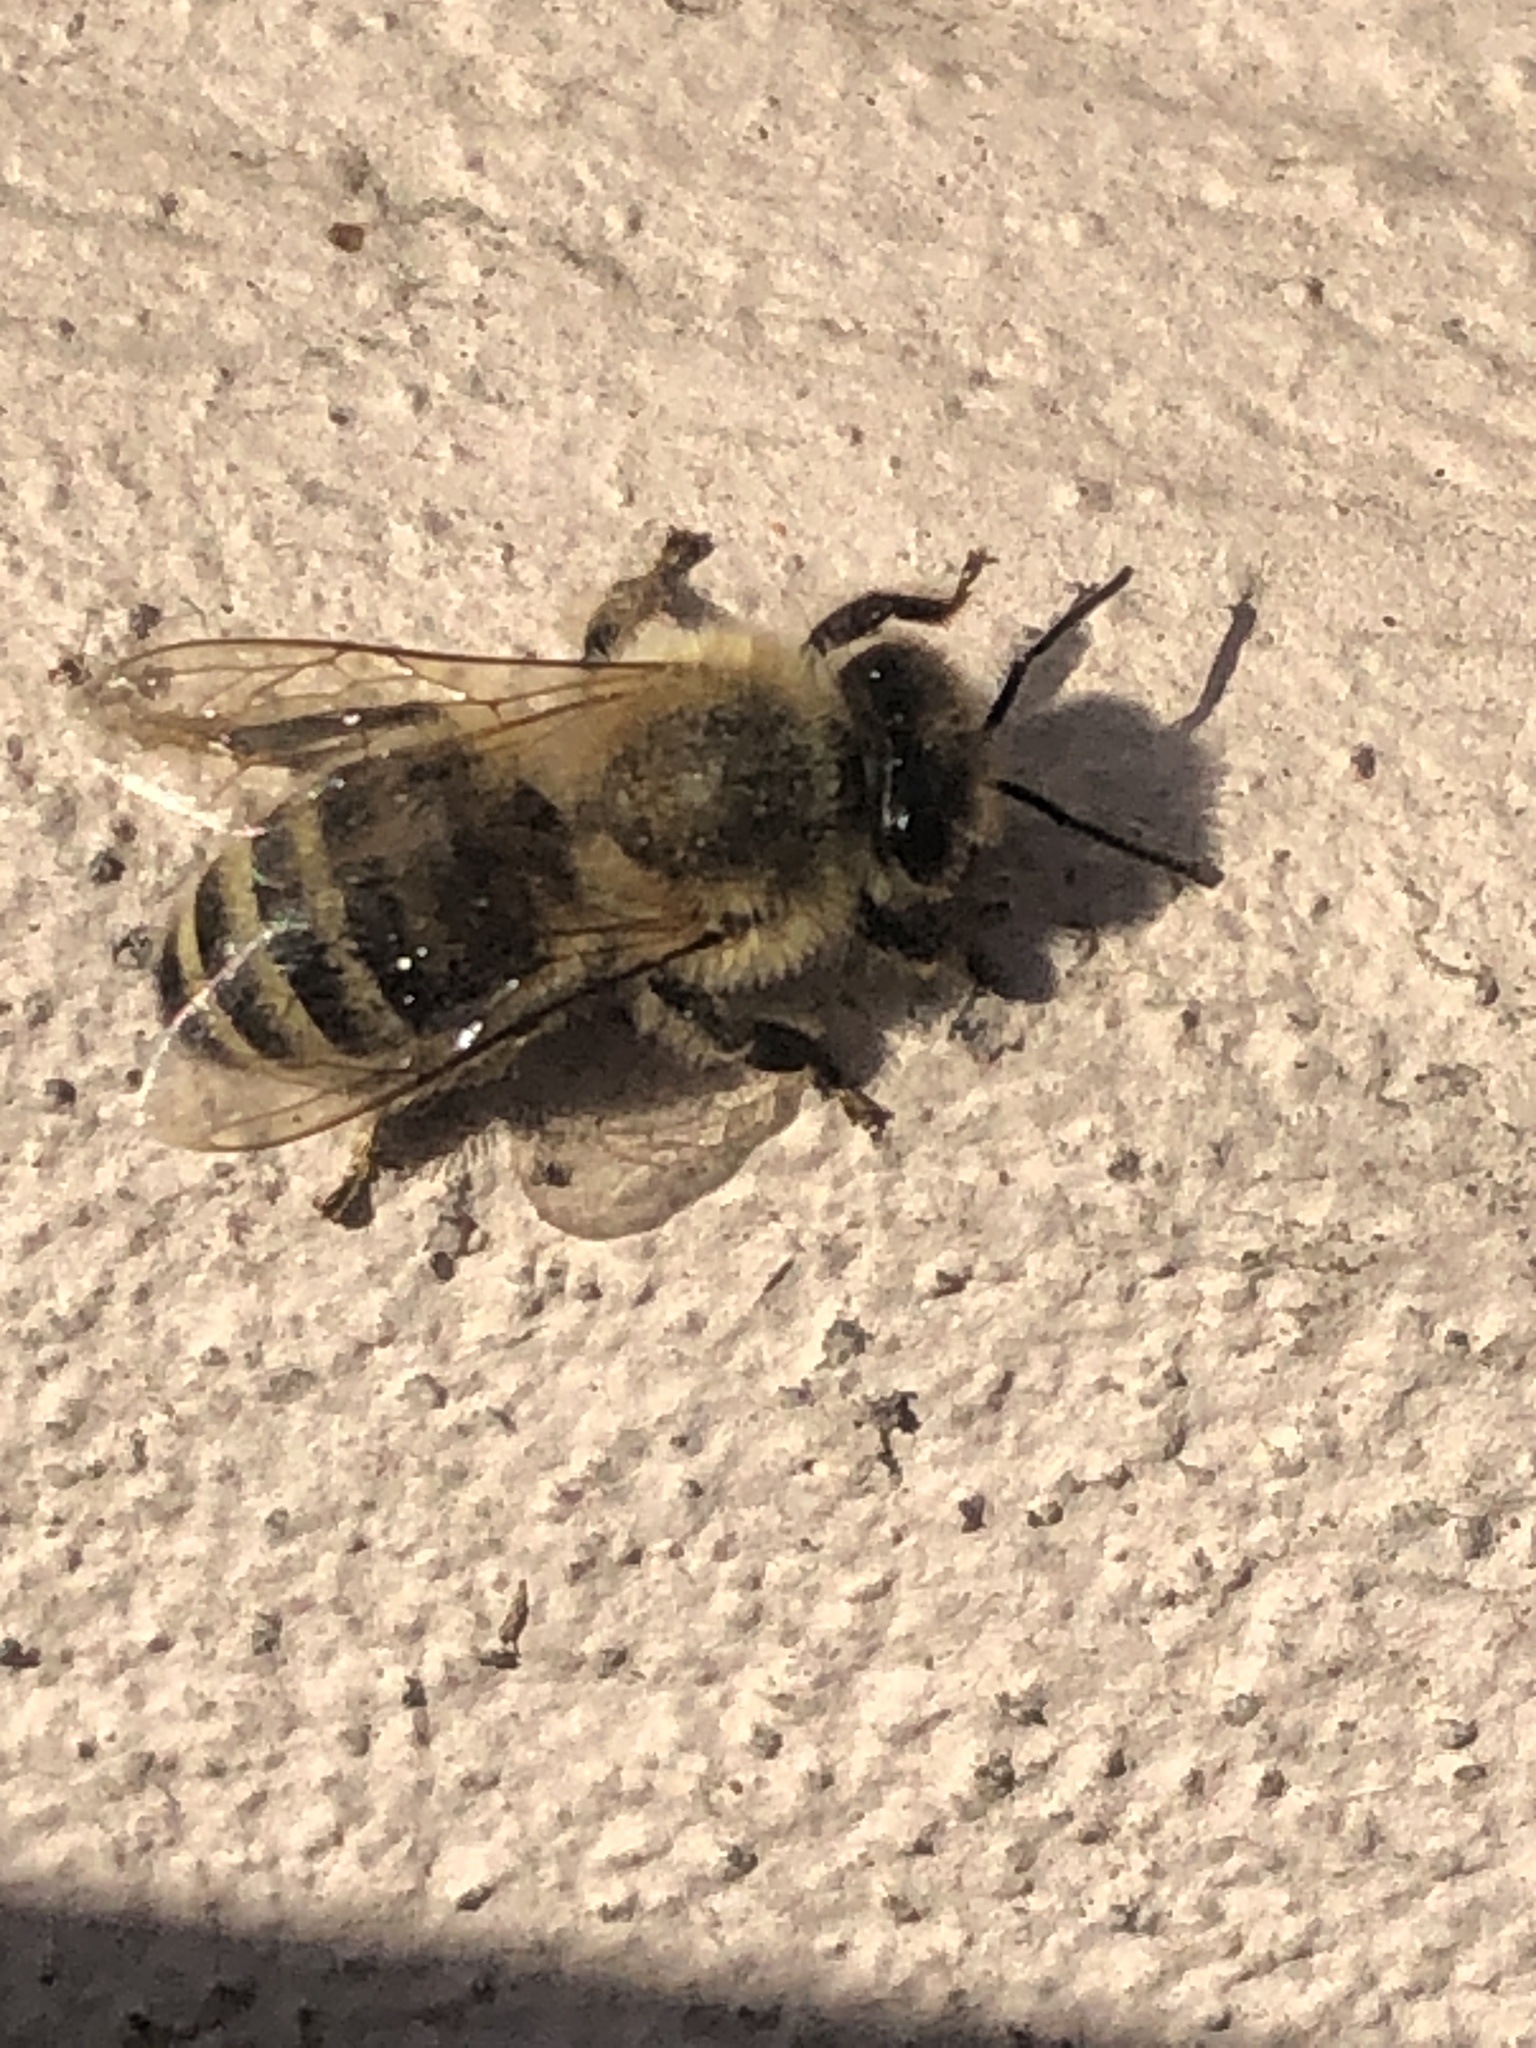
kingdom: Animalia
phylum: Arthropoda
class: Insecta
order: Hymenoptera
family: Apidae
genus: Apis
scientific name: Apis mellifera
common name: Honey bee
